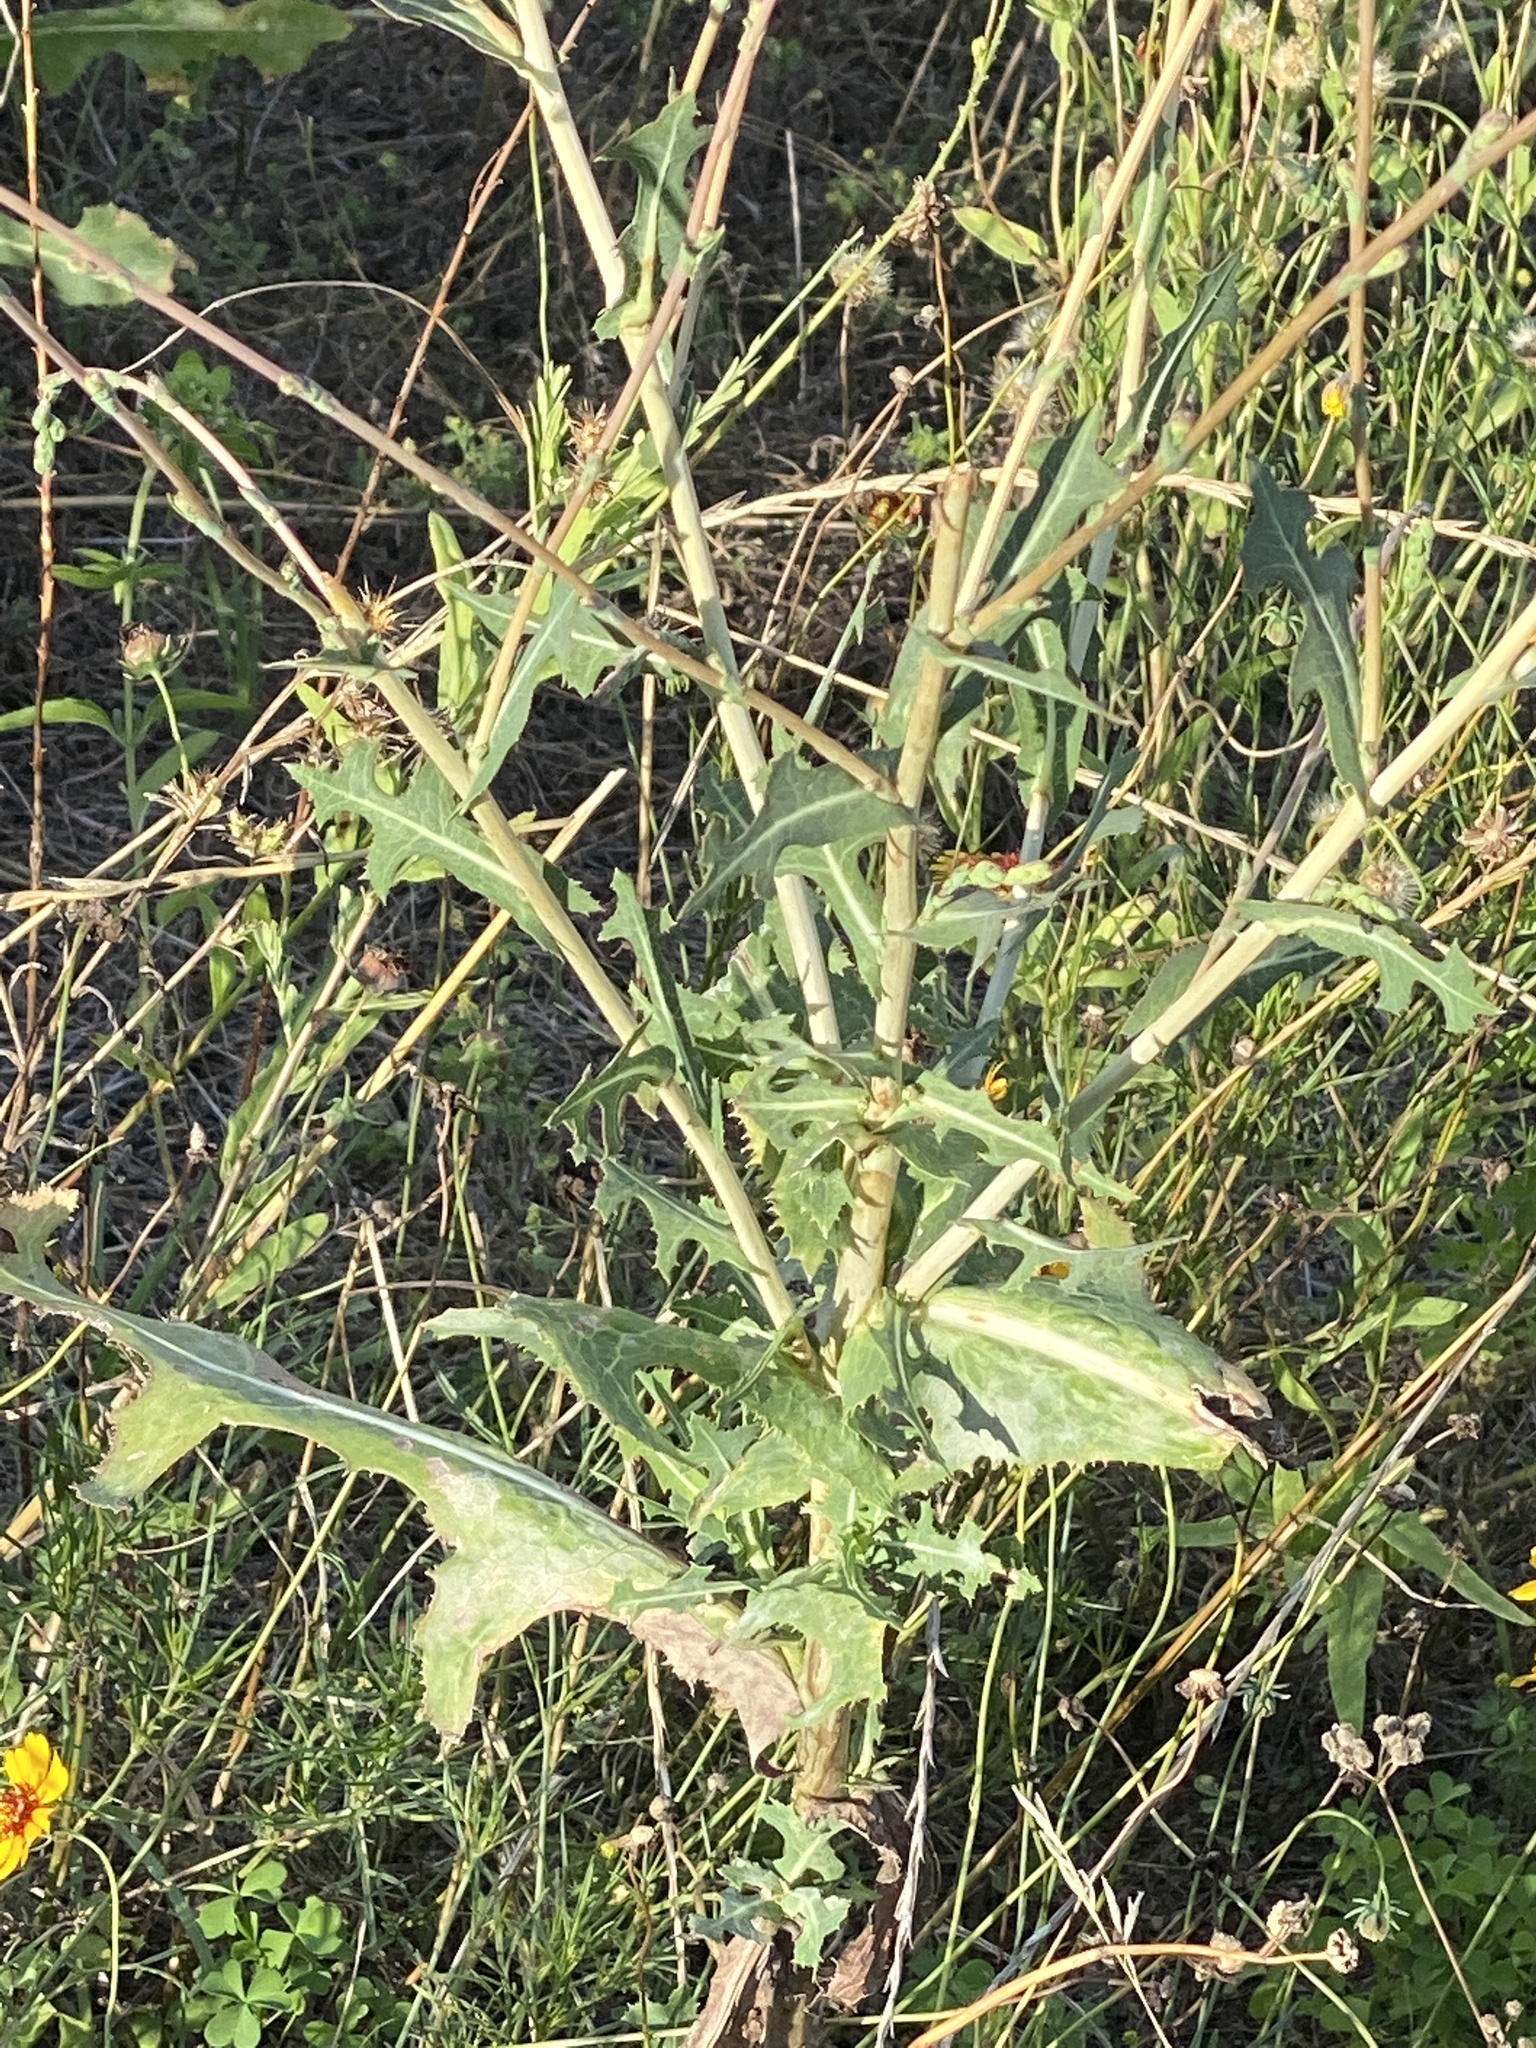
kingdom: Plantae
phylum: Tracheophyta
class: Magnoliopsida
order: Asterales
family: Asteraceae
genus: Lactuca
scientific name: Lactuca serriola
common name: Prickly lettuce
